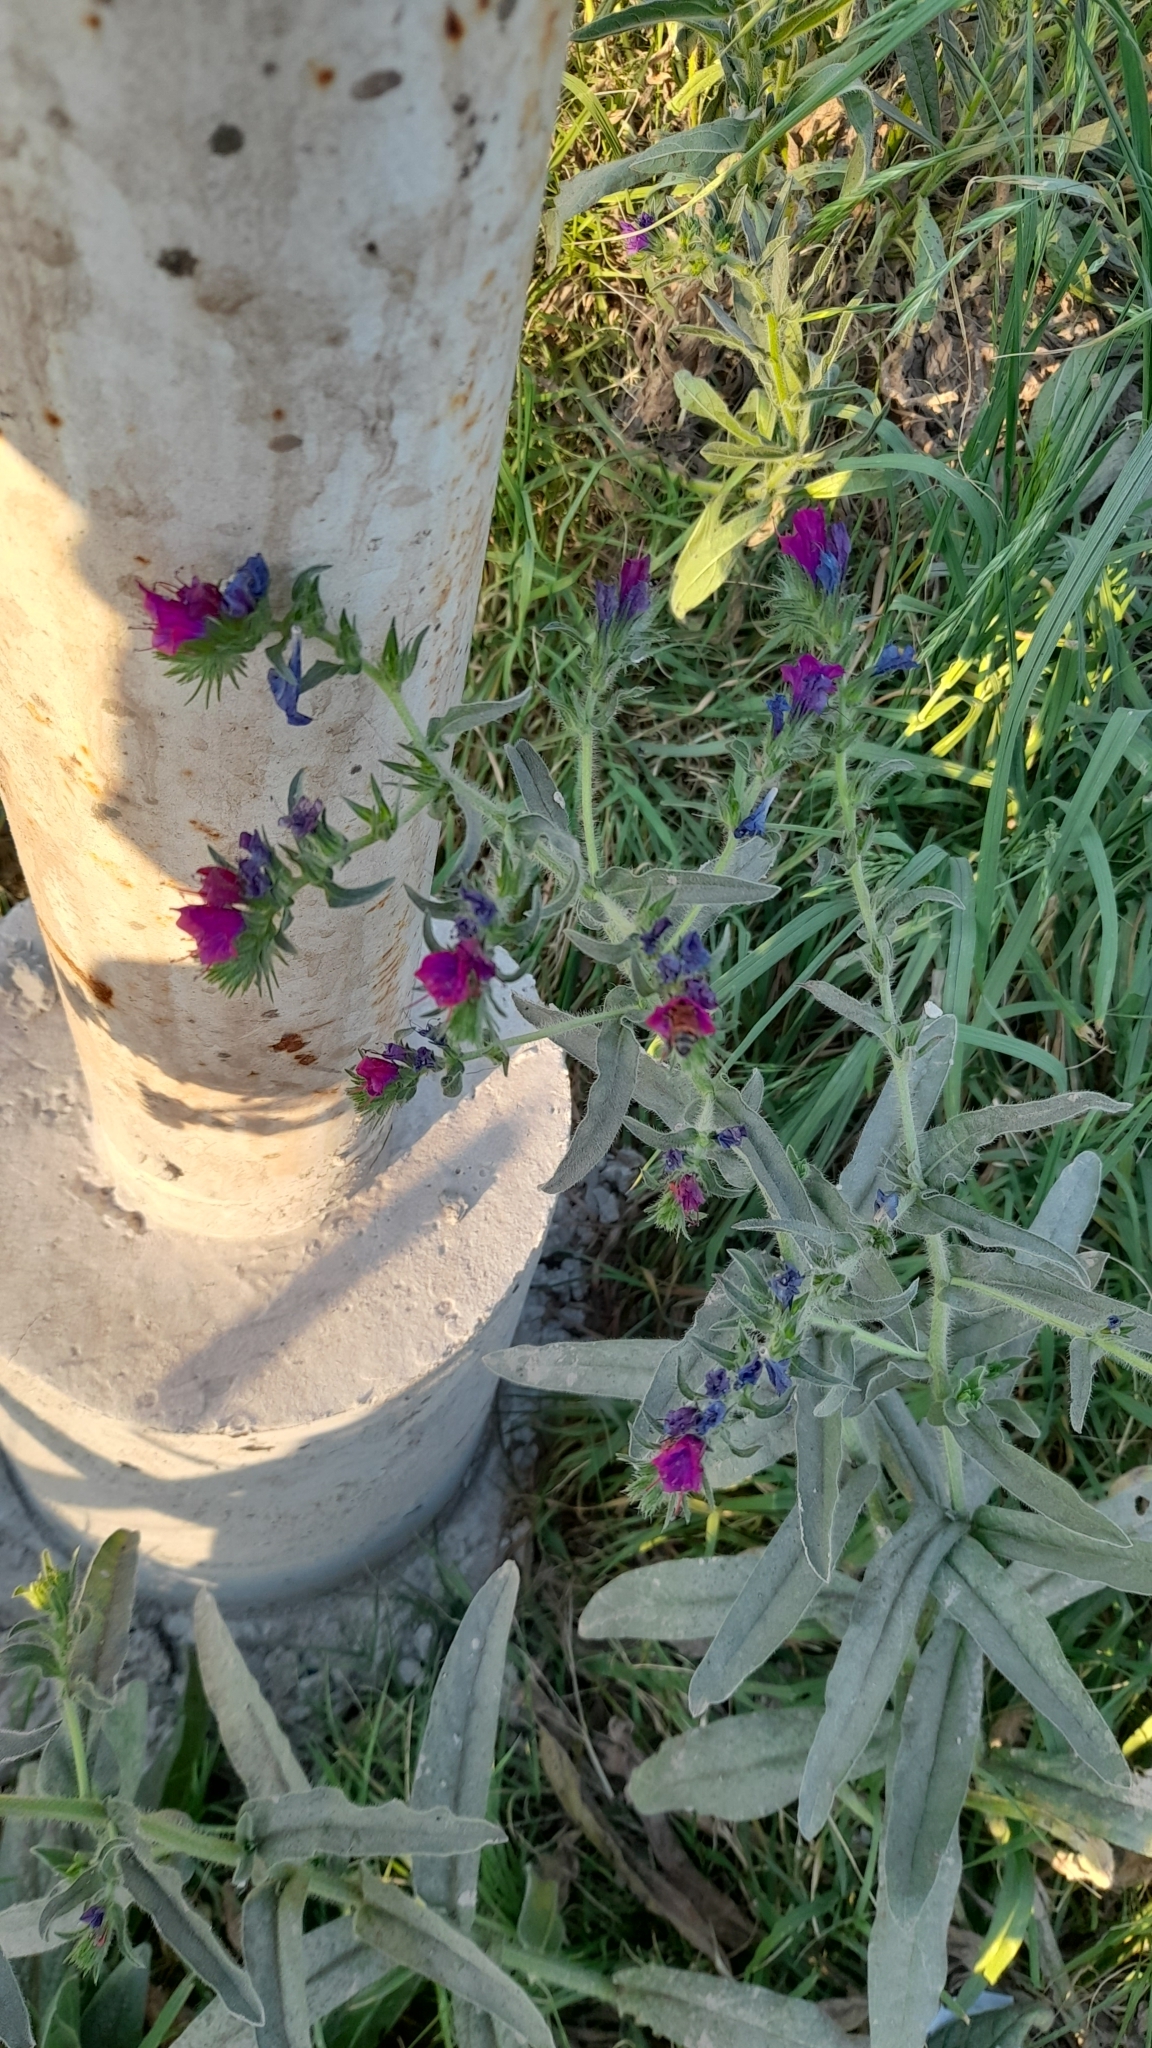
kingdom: Plantae
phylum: Tracheophyta
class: Magnoliopsida
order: Boraginales
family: Boraginaceae
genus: Echium
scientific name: Echium plantagineum
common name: Purple viper's-bugloss
